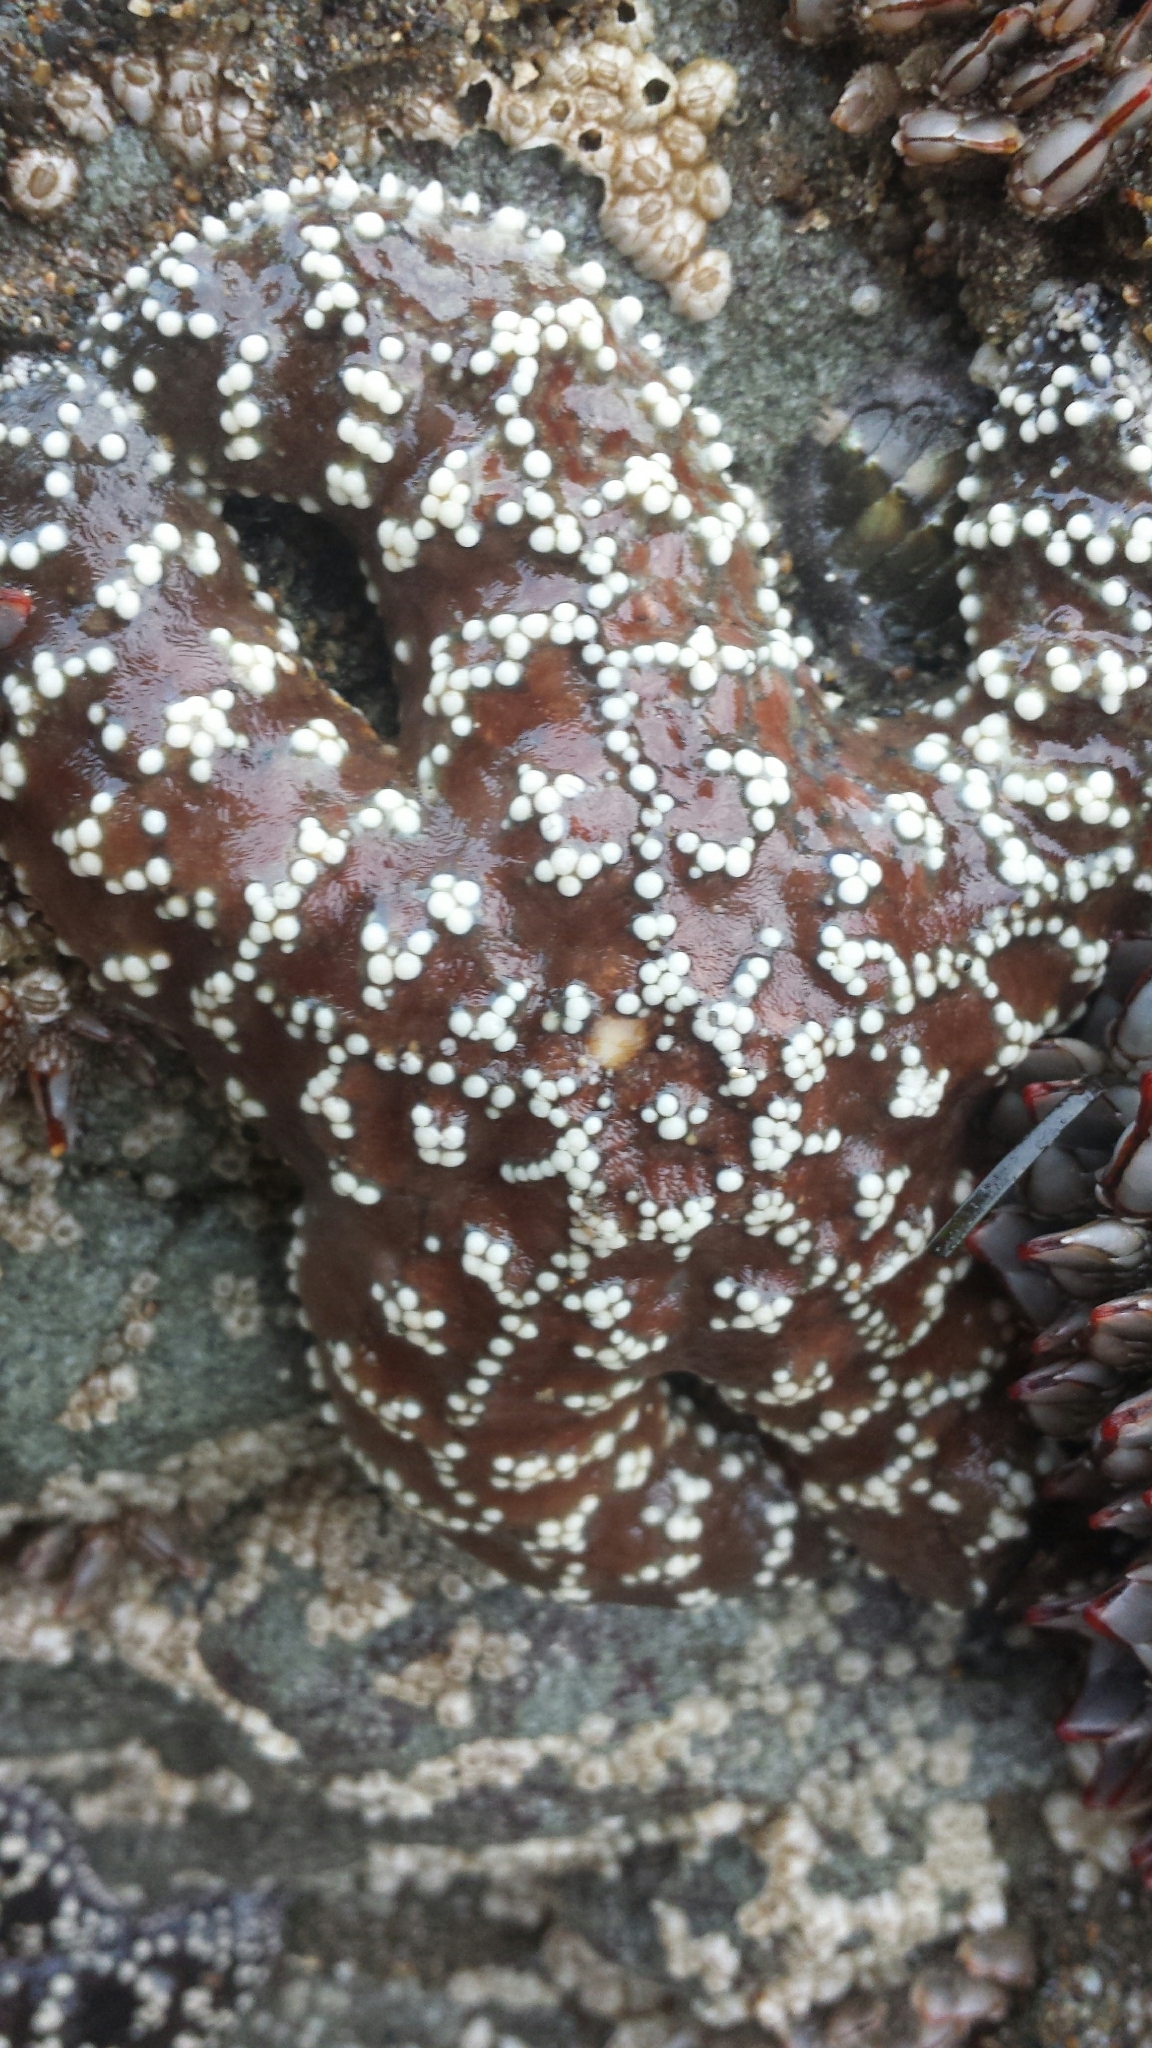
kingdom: Animalia
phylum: Echinodermata
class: Asteroidea
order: Forcipulatida
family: Asteriidae
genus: Pisaster
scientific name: Pisaster ochraceus
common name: Ochre stars
